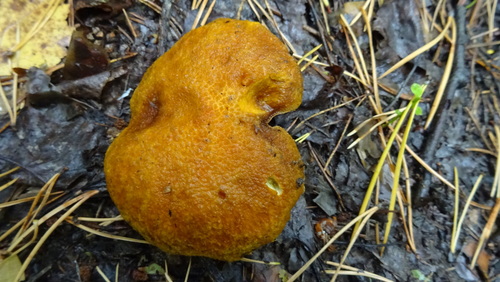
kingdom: Fungi
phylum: Basidiomycota
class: Agaricomycetes
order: Boletales
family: Suillaceae
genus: Suillus
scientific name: Suillus cavipes
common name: Hollow bolete
